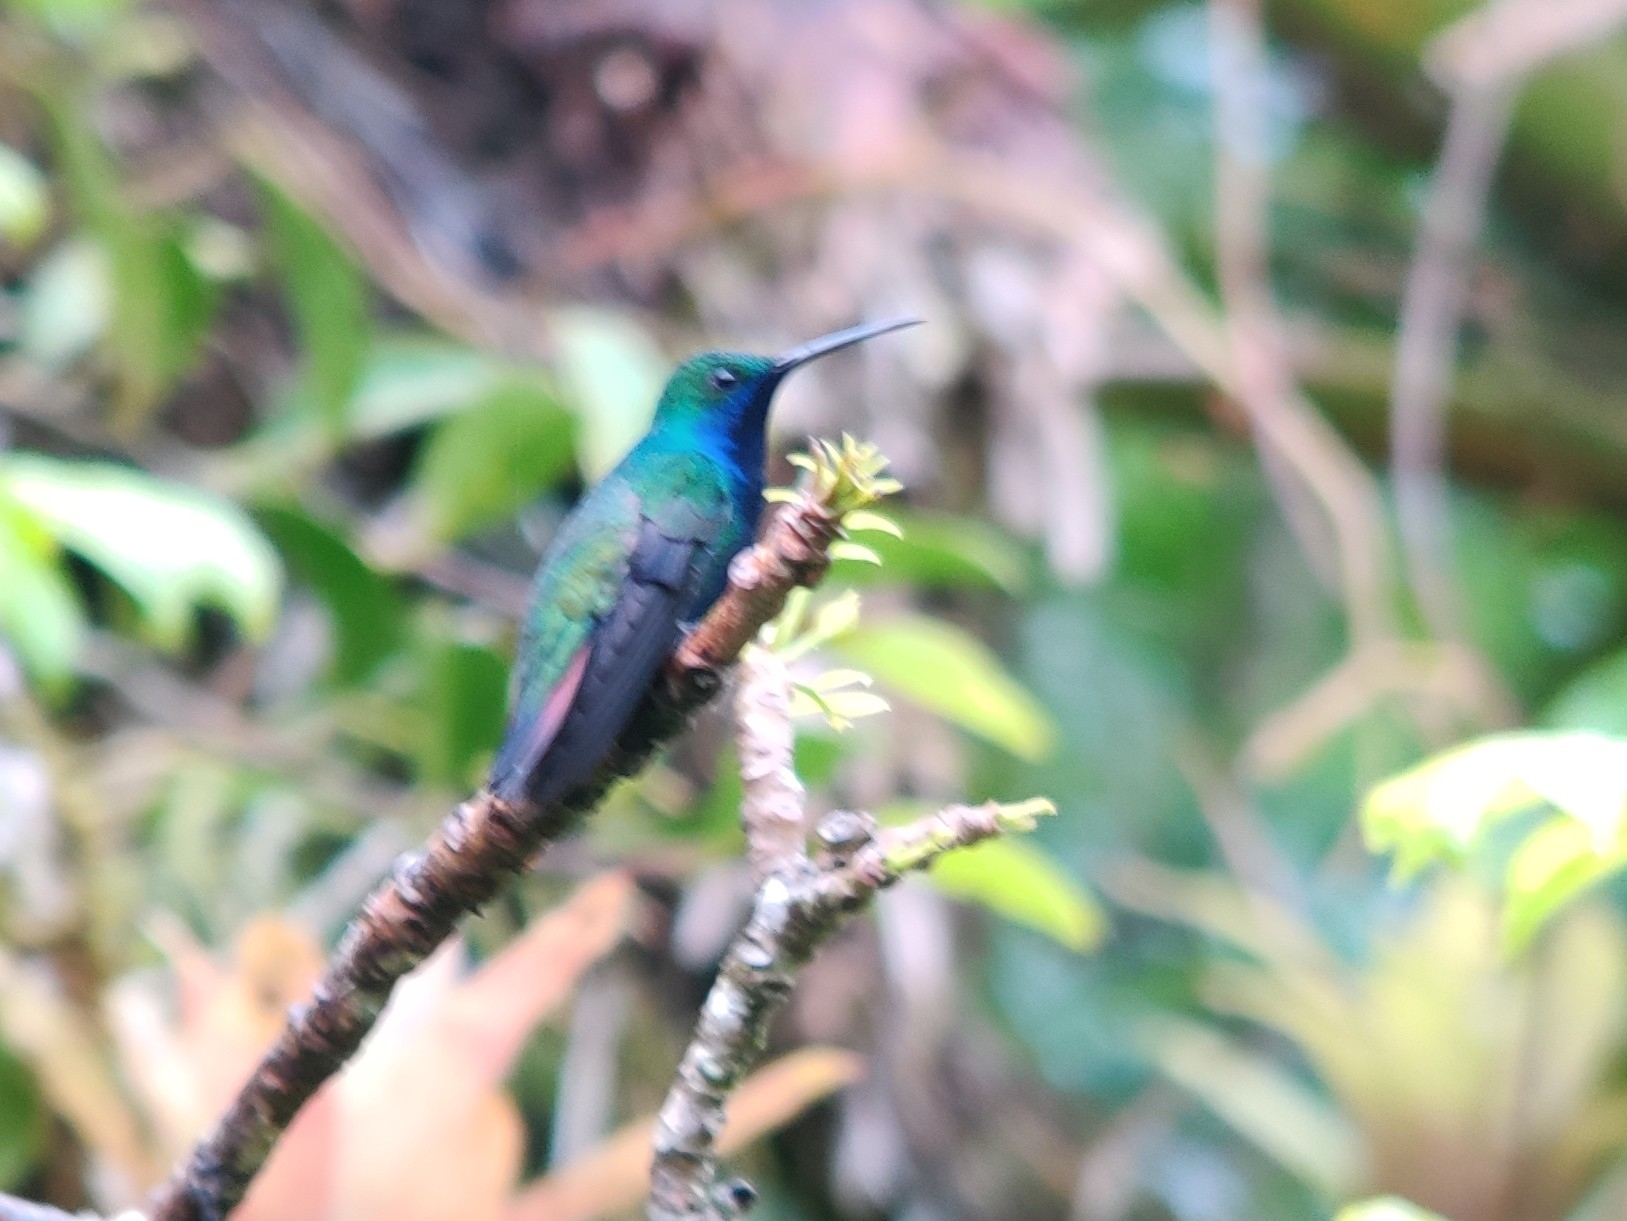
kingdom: Animalia
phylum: Chordata
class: Aves
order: Apodiformes
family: Trochilidae
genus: Anthracothorax
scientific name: Anthracothorax nigricollis
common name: Black-throated mango
